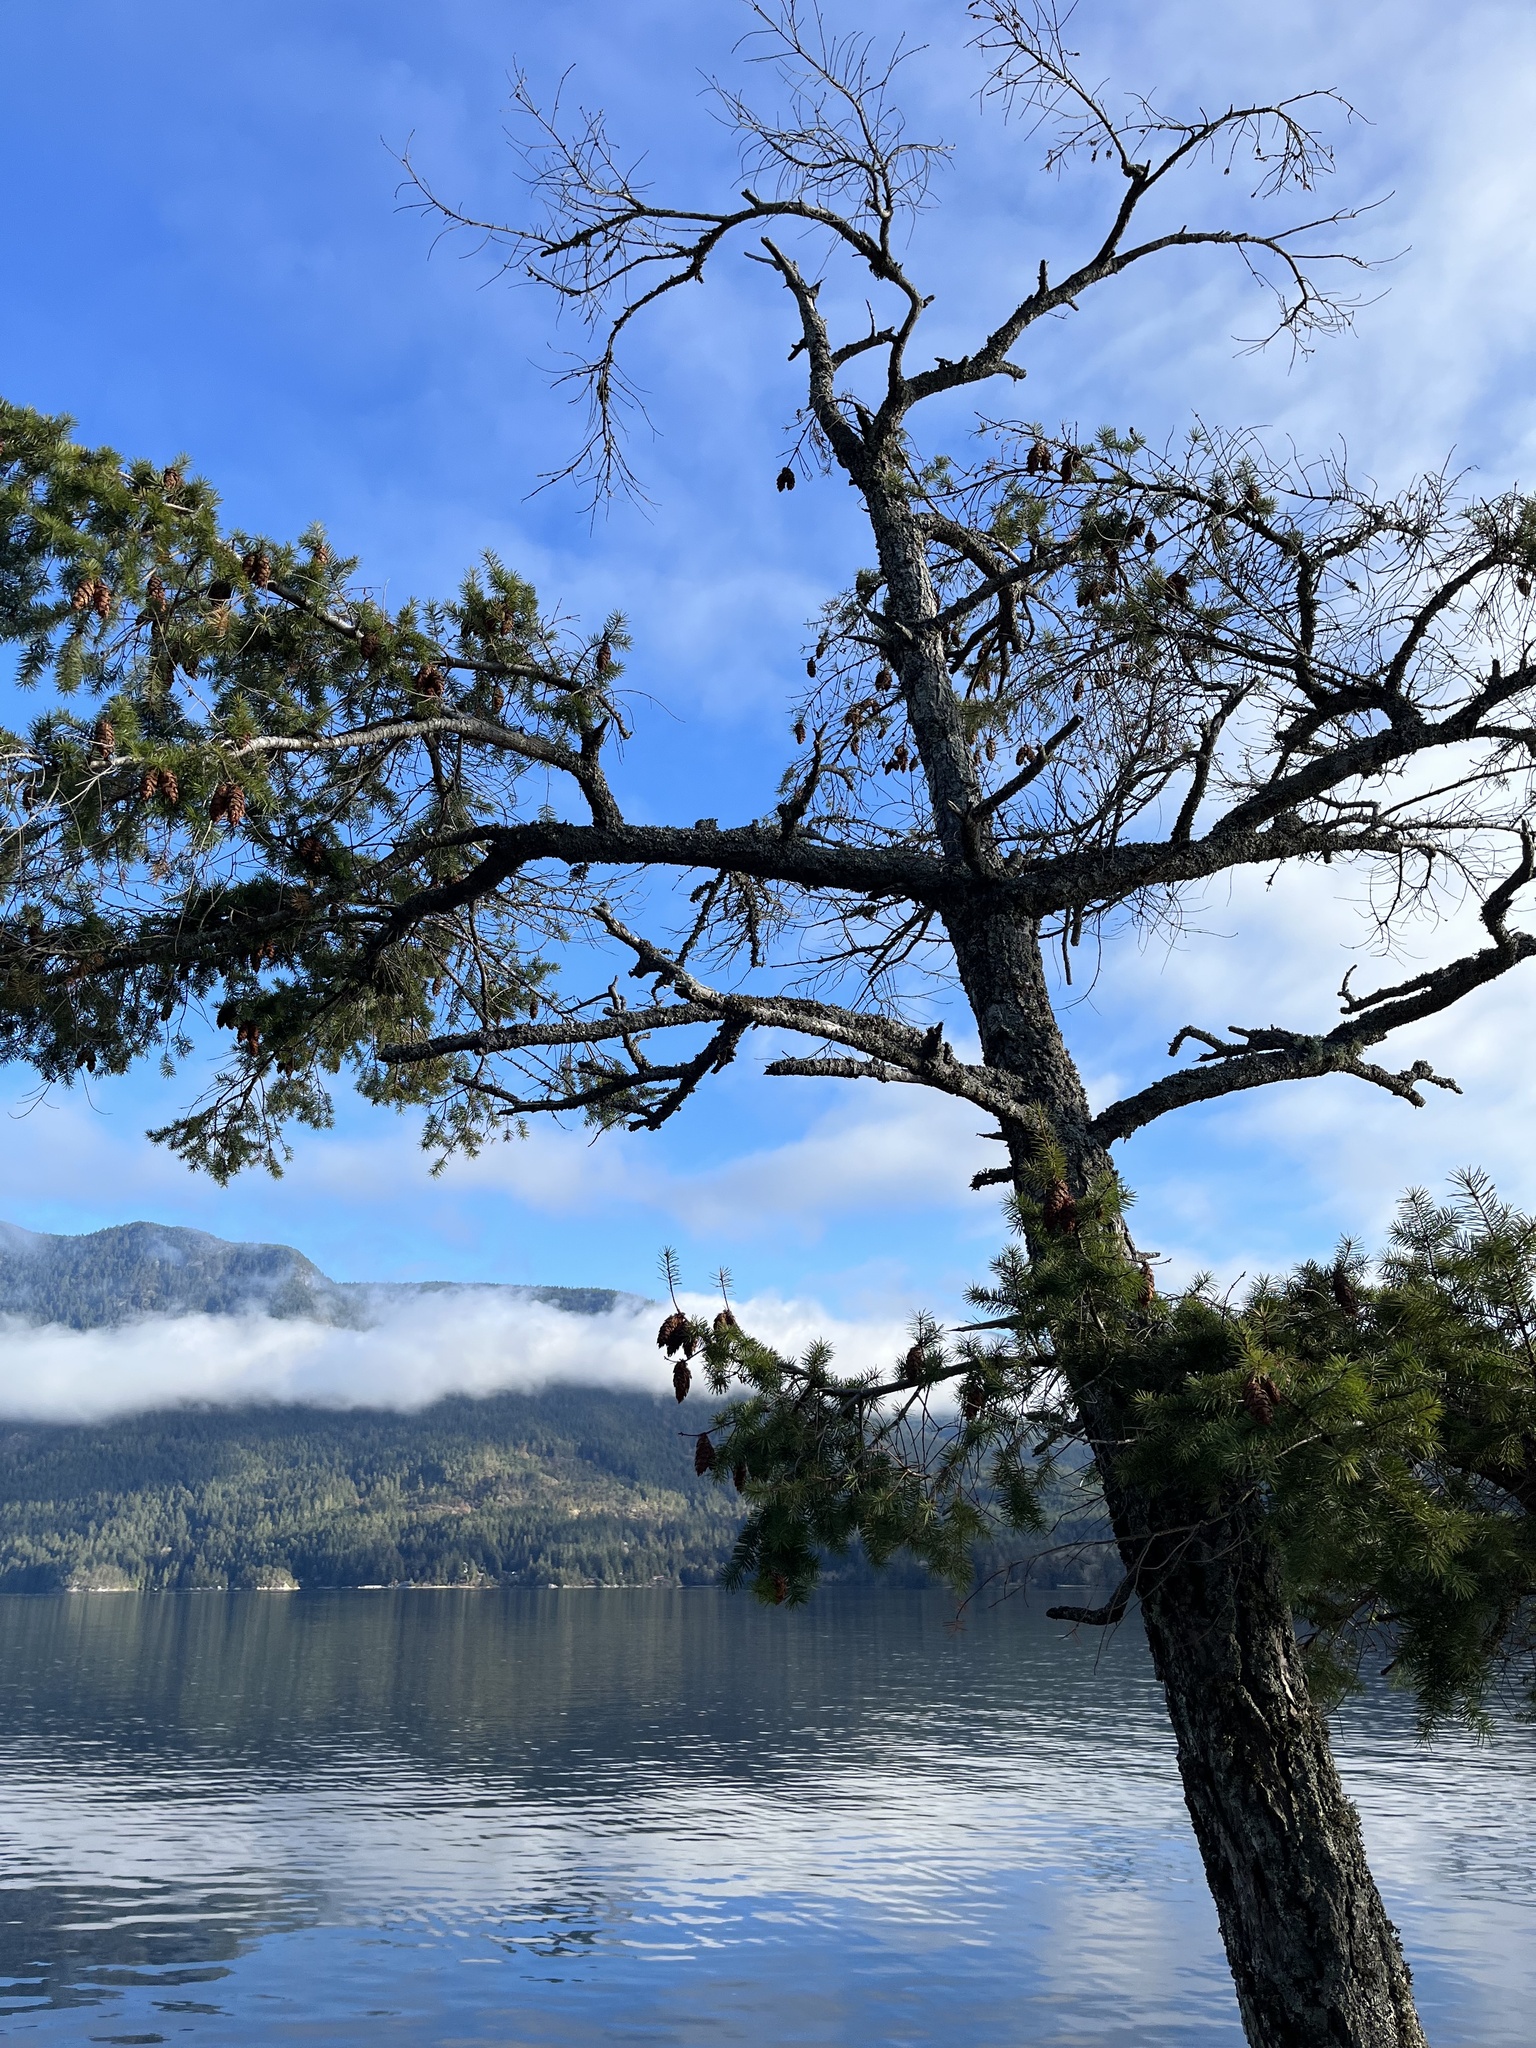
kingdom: Plantae
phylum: Tracheophyta
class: Pinopsida
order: Pinales
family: Pinaceae
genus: Pseudotsuga
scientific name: Pseudotsuga menziesii
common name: Douglas fir
